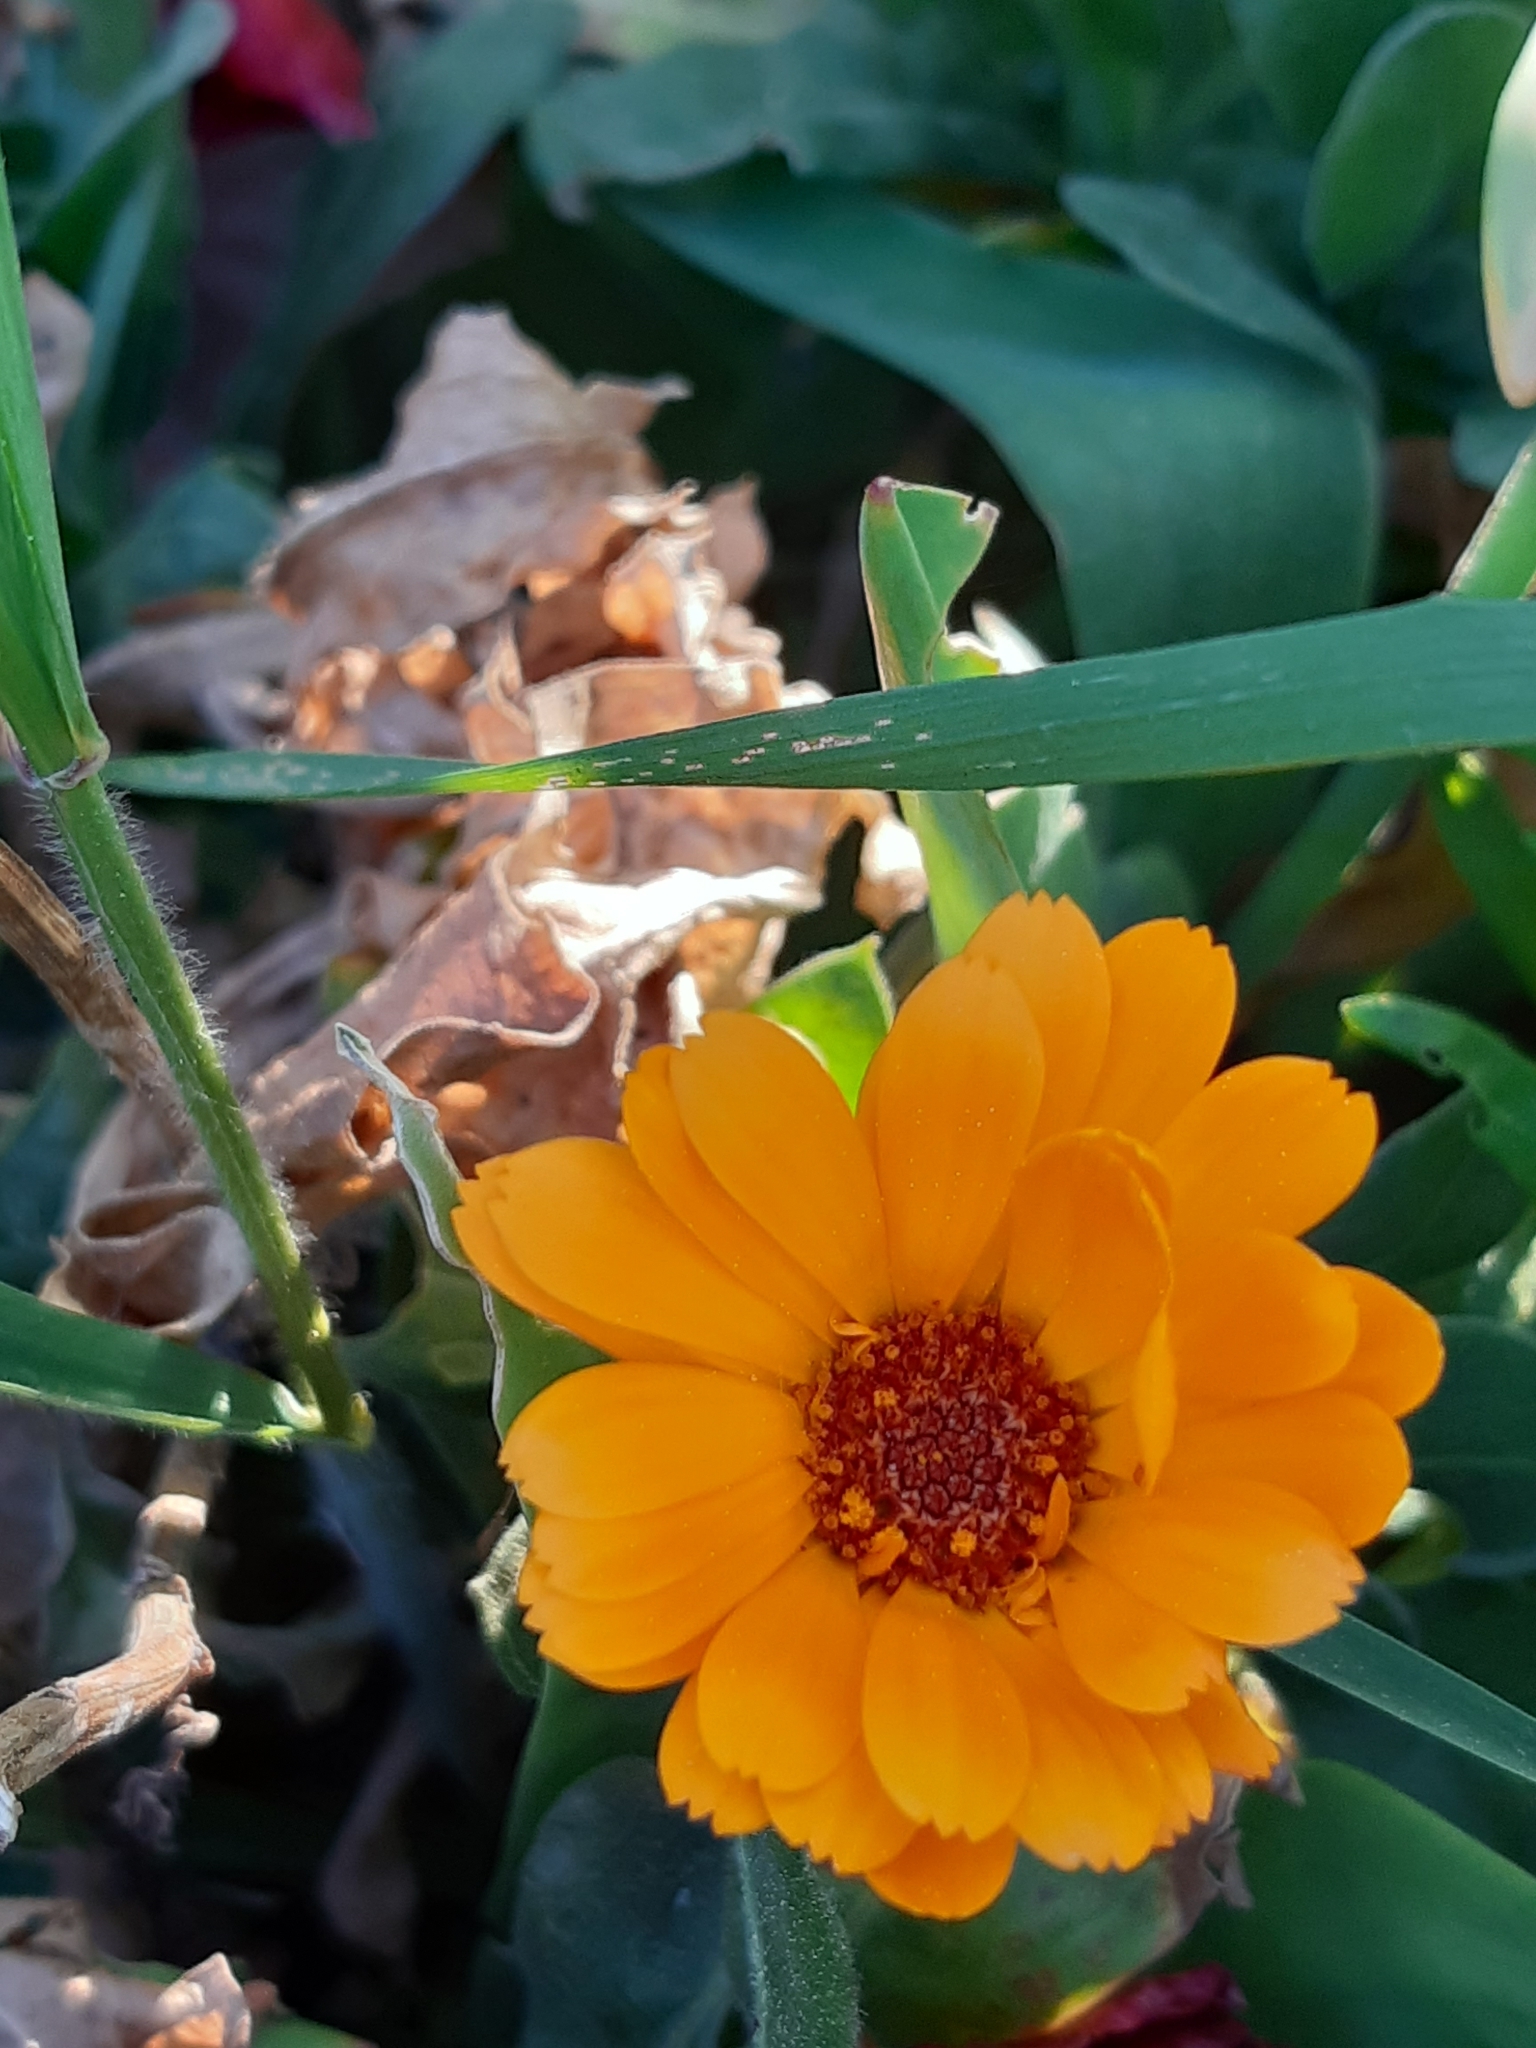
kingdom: Plantae
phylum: Tracheophyta
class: Magnoliopsida
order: Asterales
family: Asteraceae
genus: Calendula
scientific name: Calendula officinalis
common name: Pot marigold
